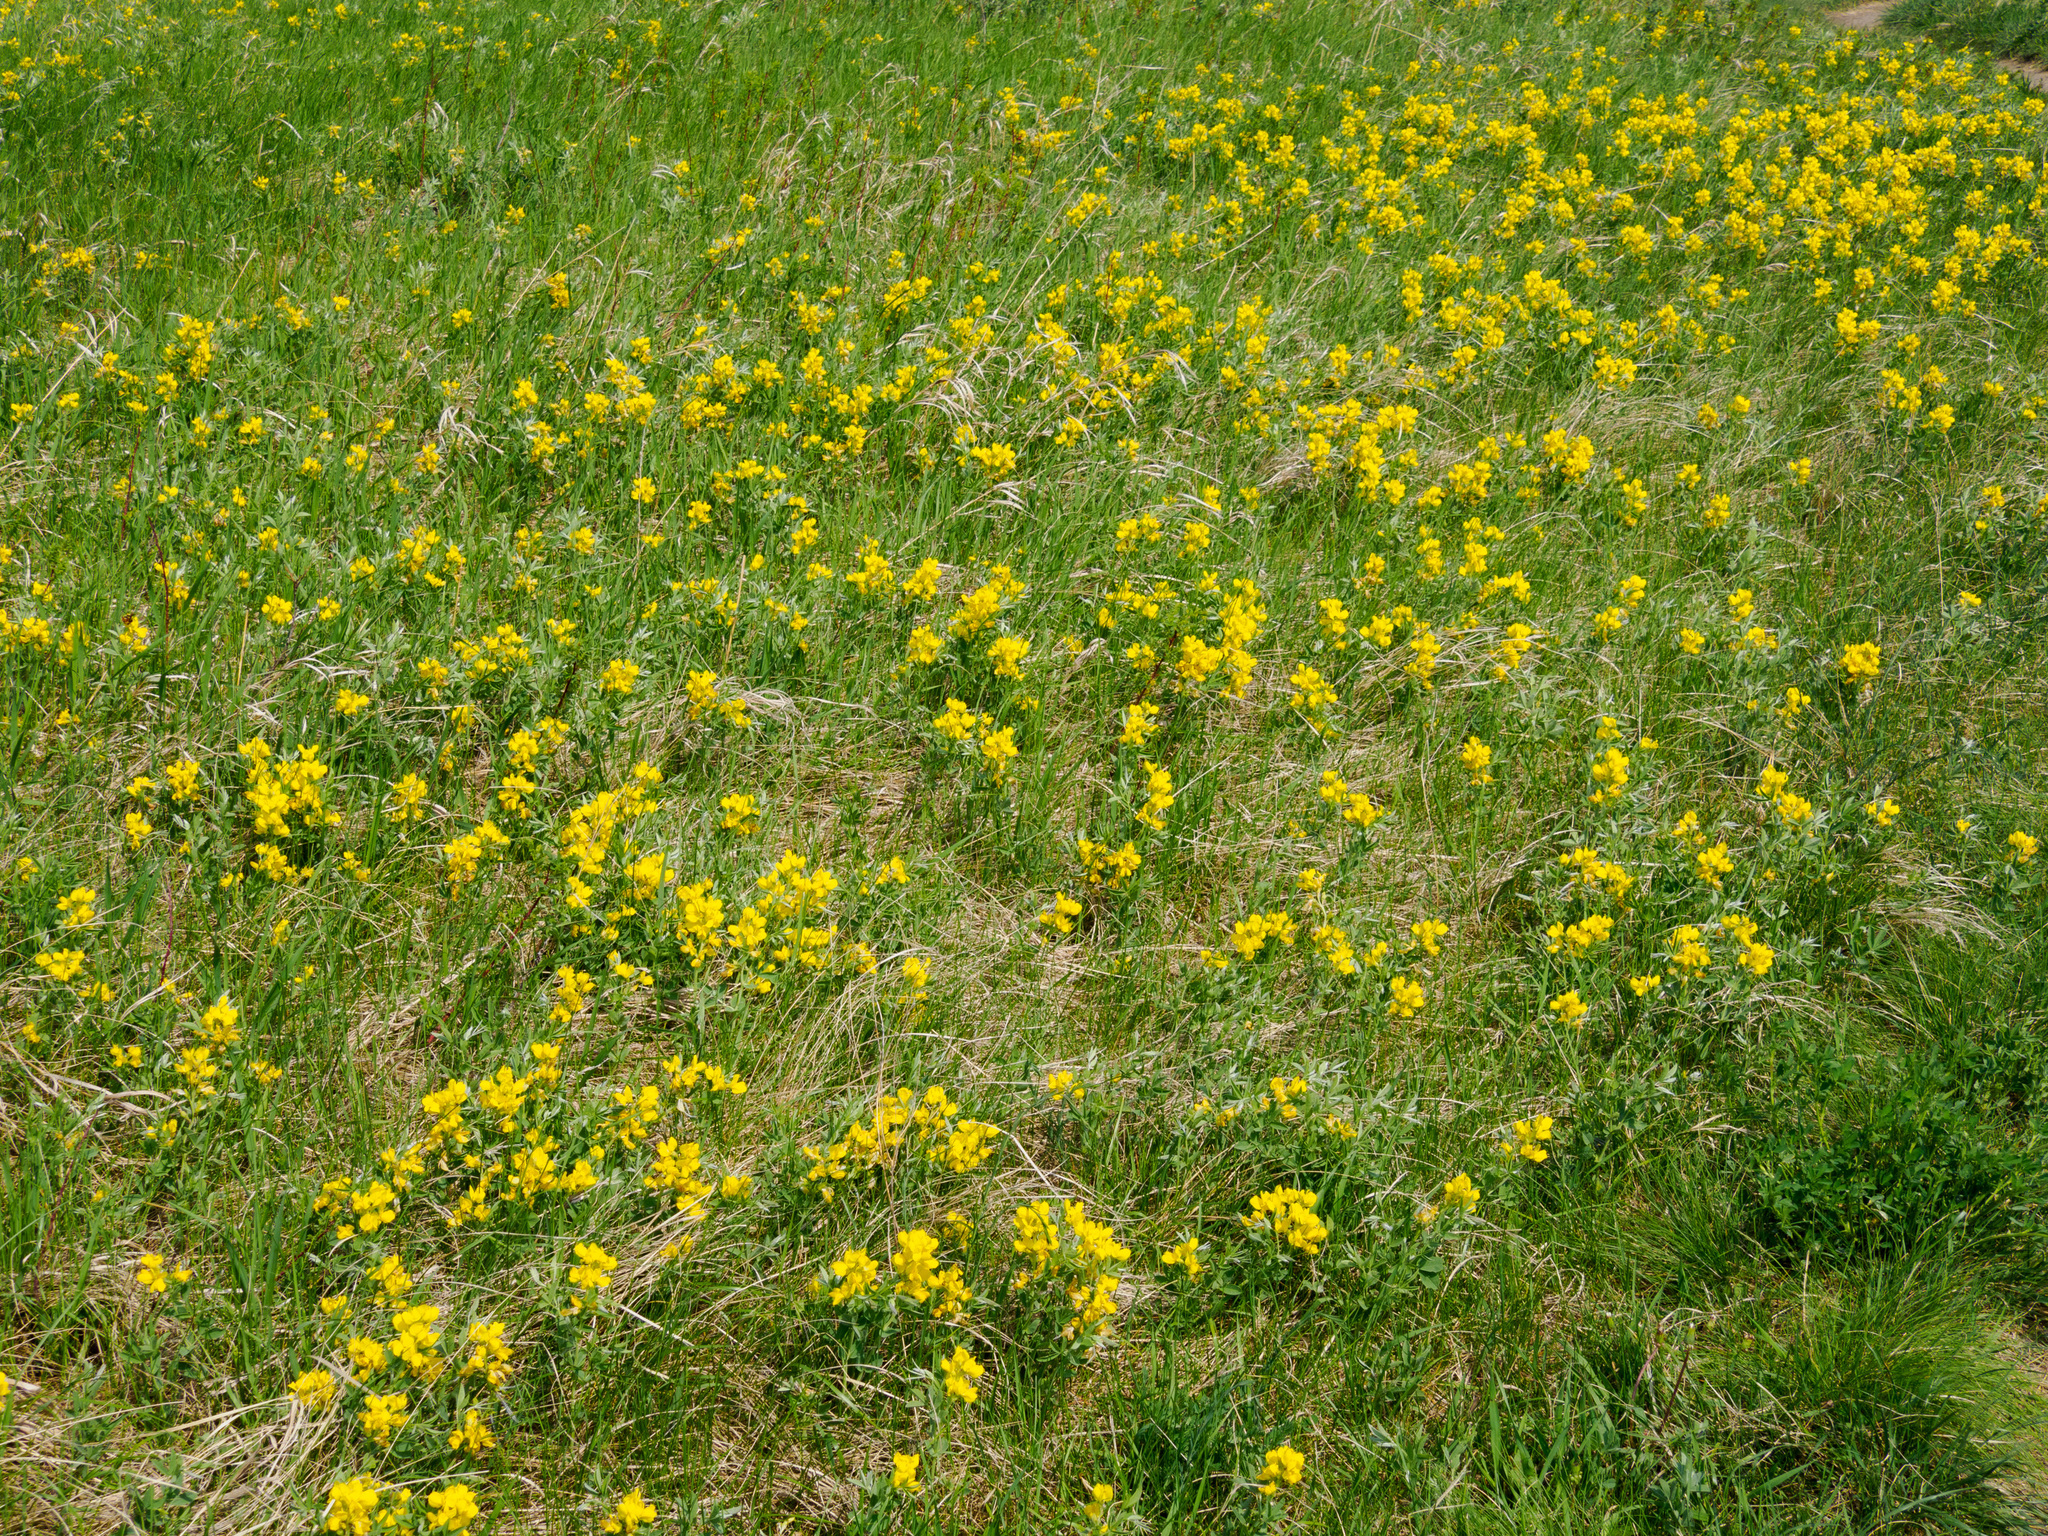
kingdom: Plantae
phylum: Tracheophyta
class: Magnoliopsida
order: Fabales
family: Fabaceae
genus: Thermopsis
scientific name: Thermopsis rhombifolia
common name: Circle-pod-pea
